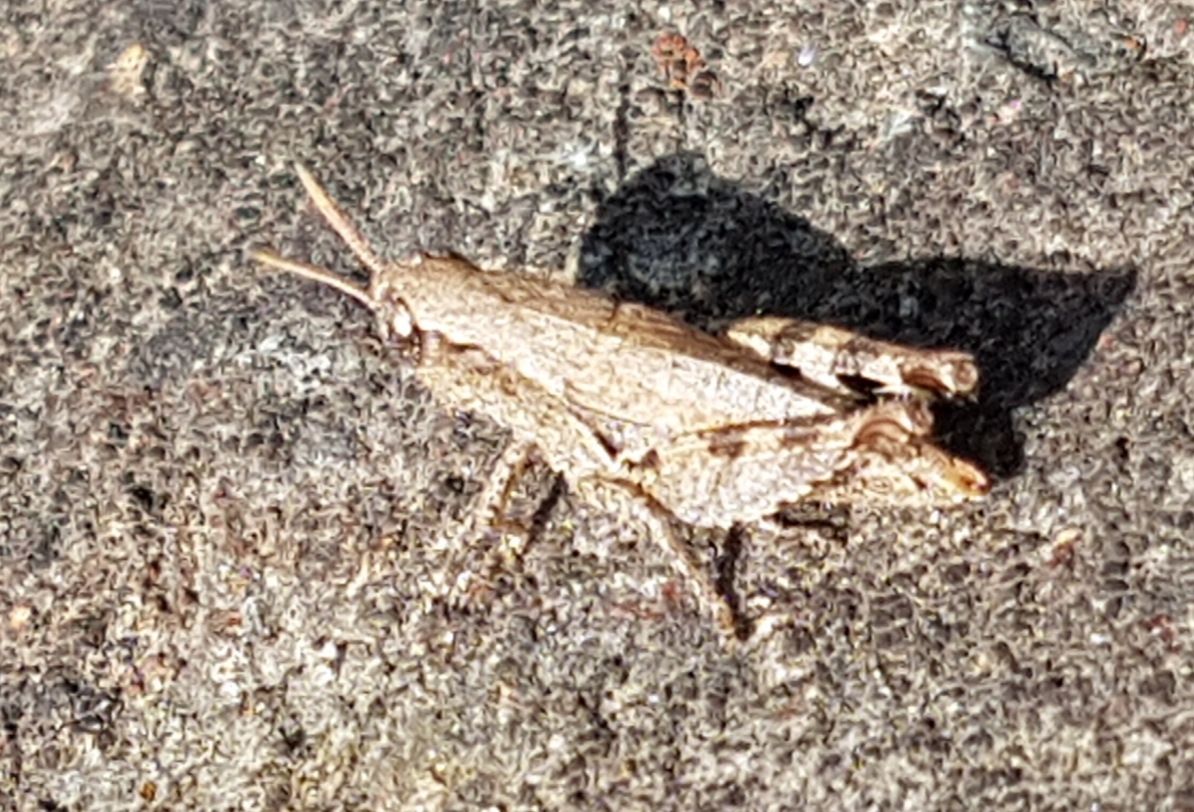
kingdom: Animalia
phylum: Arthropoda
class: Insecta
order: Orthoptera
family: Acrididae
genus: Pezotettix
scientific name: Pezotettix giornae
